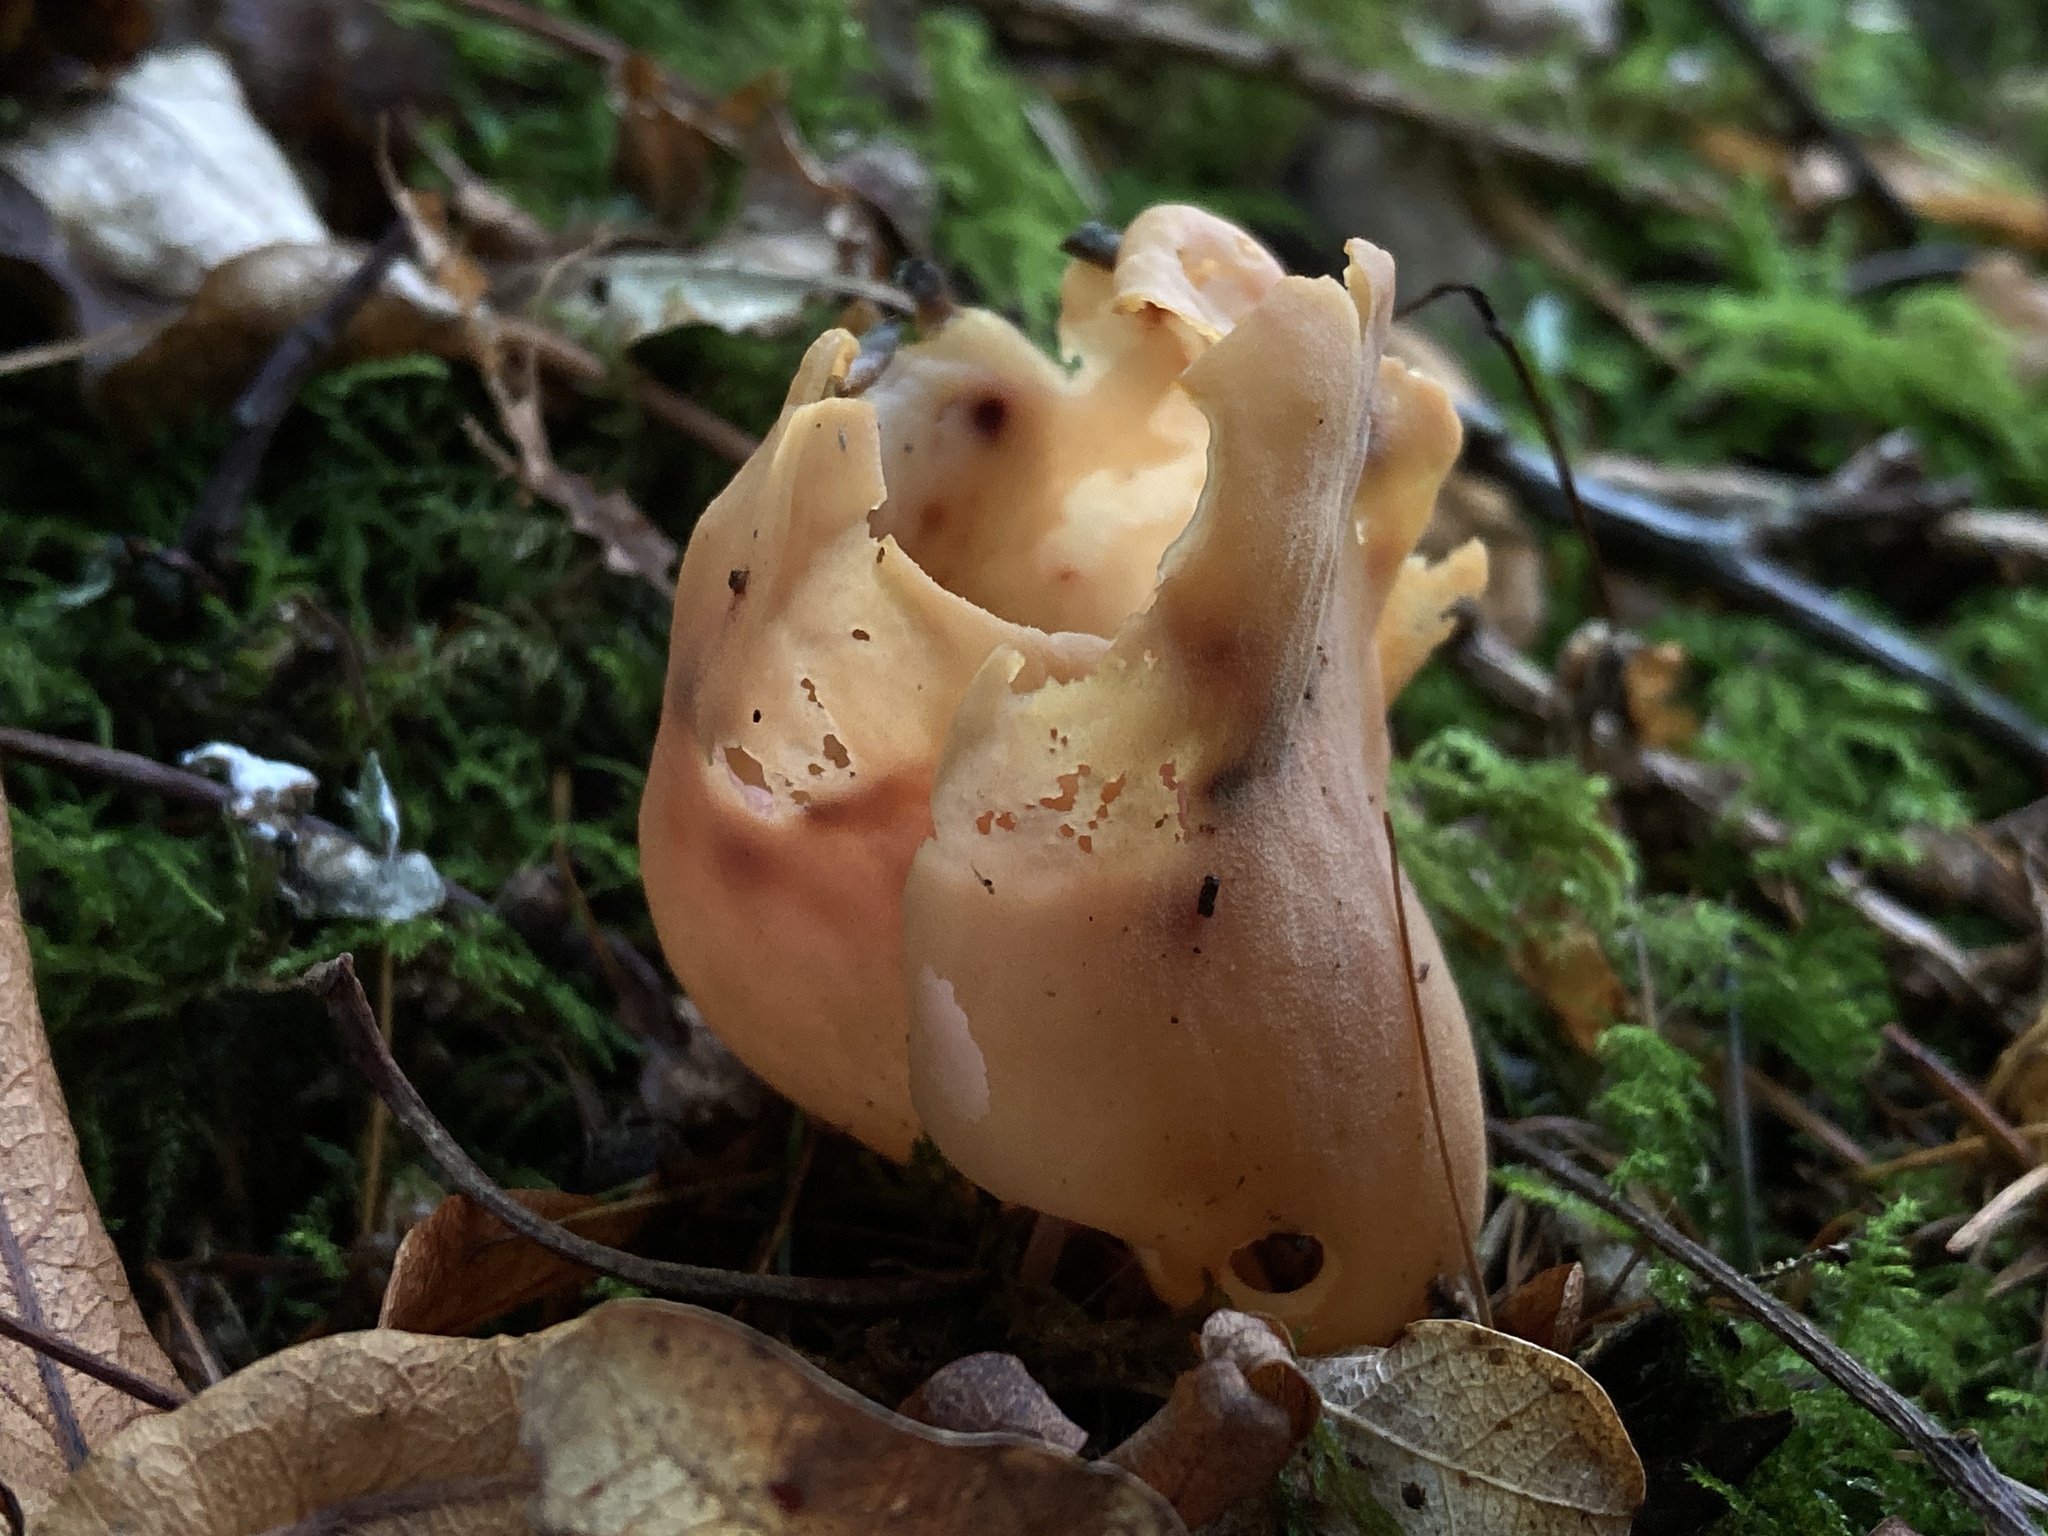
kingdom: Fungi
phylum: Ascomycota
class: Pezizomycetes
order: Pezizales
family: Otideaceae
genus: Otidea
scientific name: Otidea onotica
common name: Hare's ear
